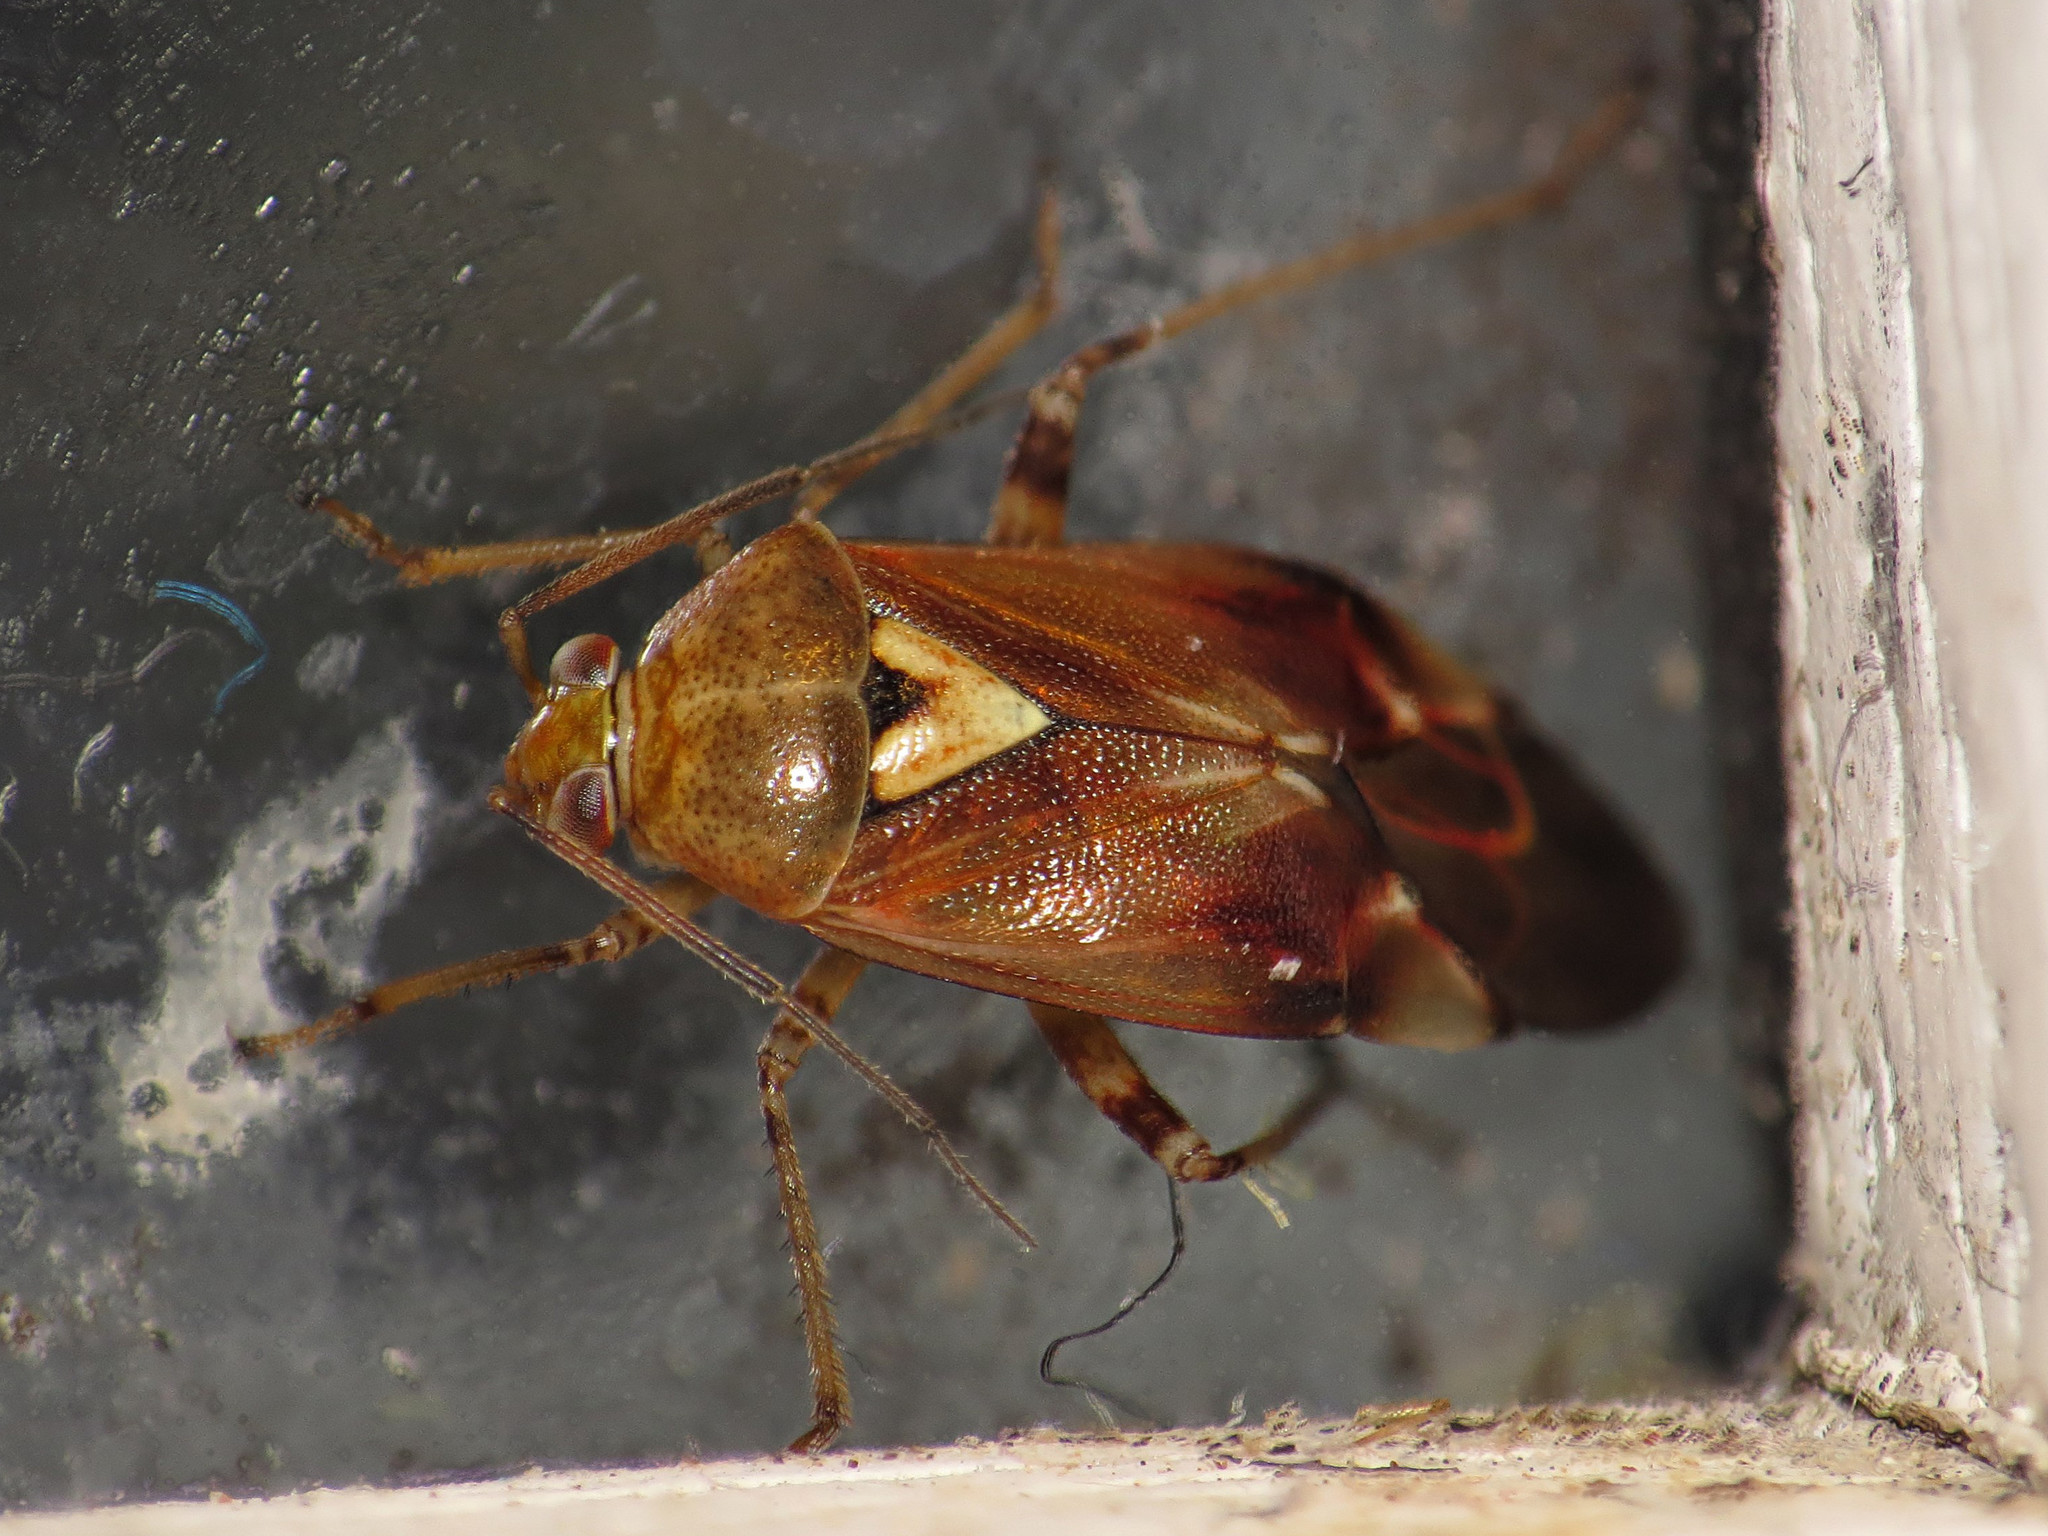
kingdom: Animalia
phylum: Arthropoda
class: Insecta
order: Hemiptera
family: Miridae
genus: Lygus
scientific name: Lygus pratensis
